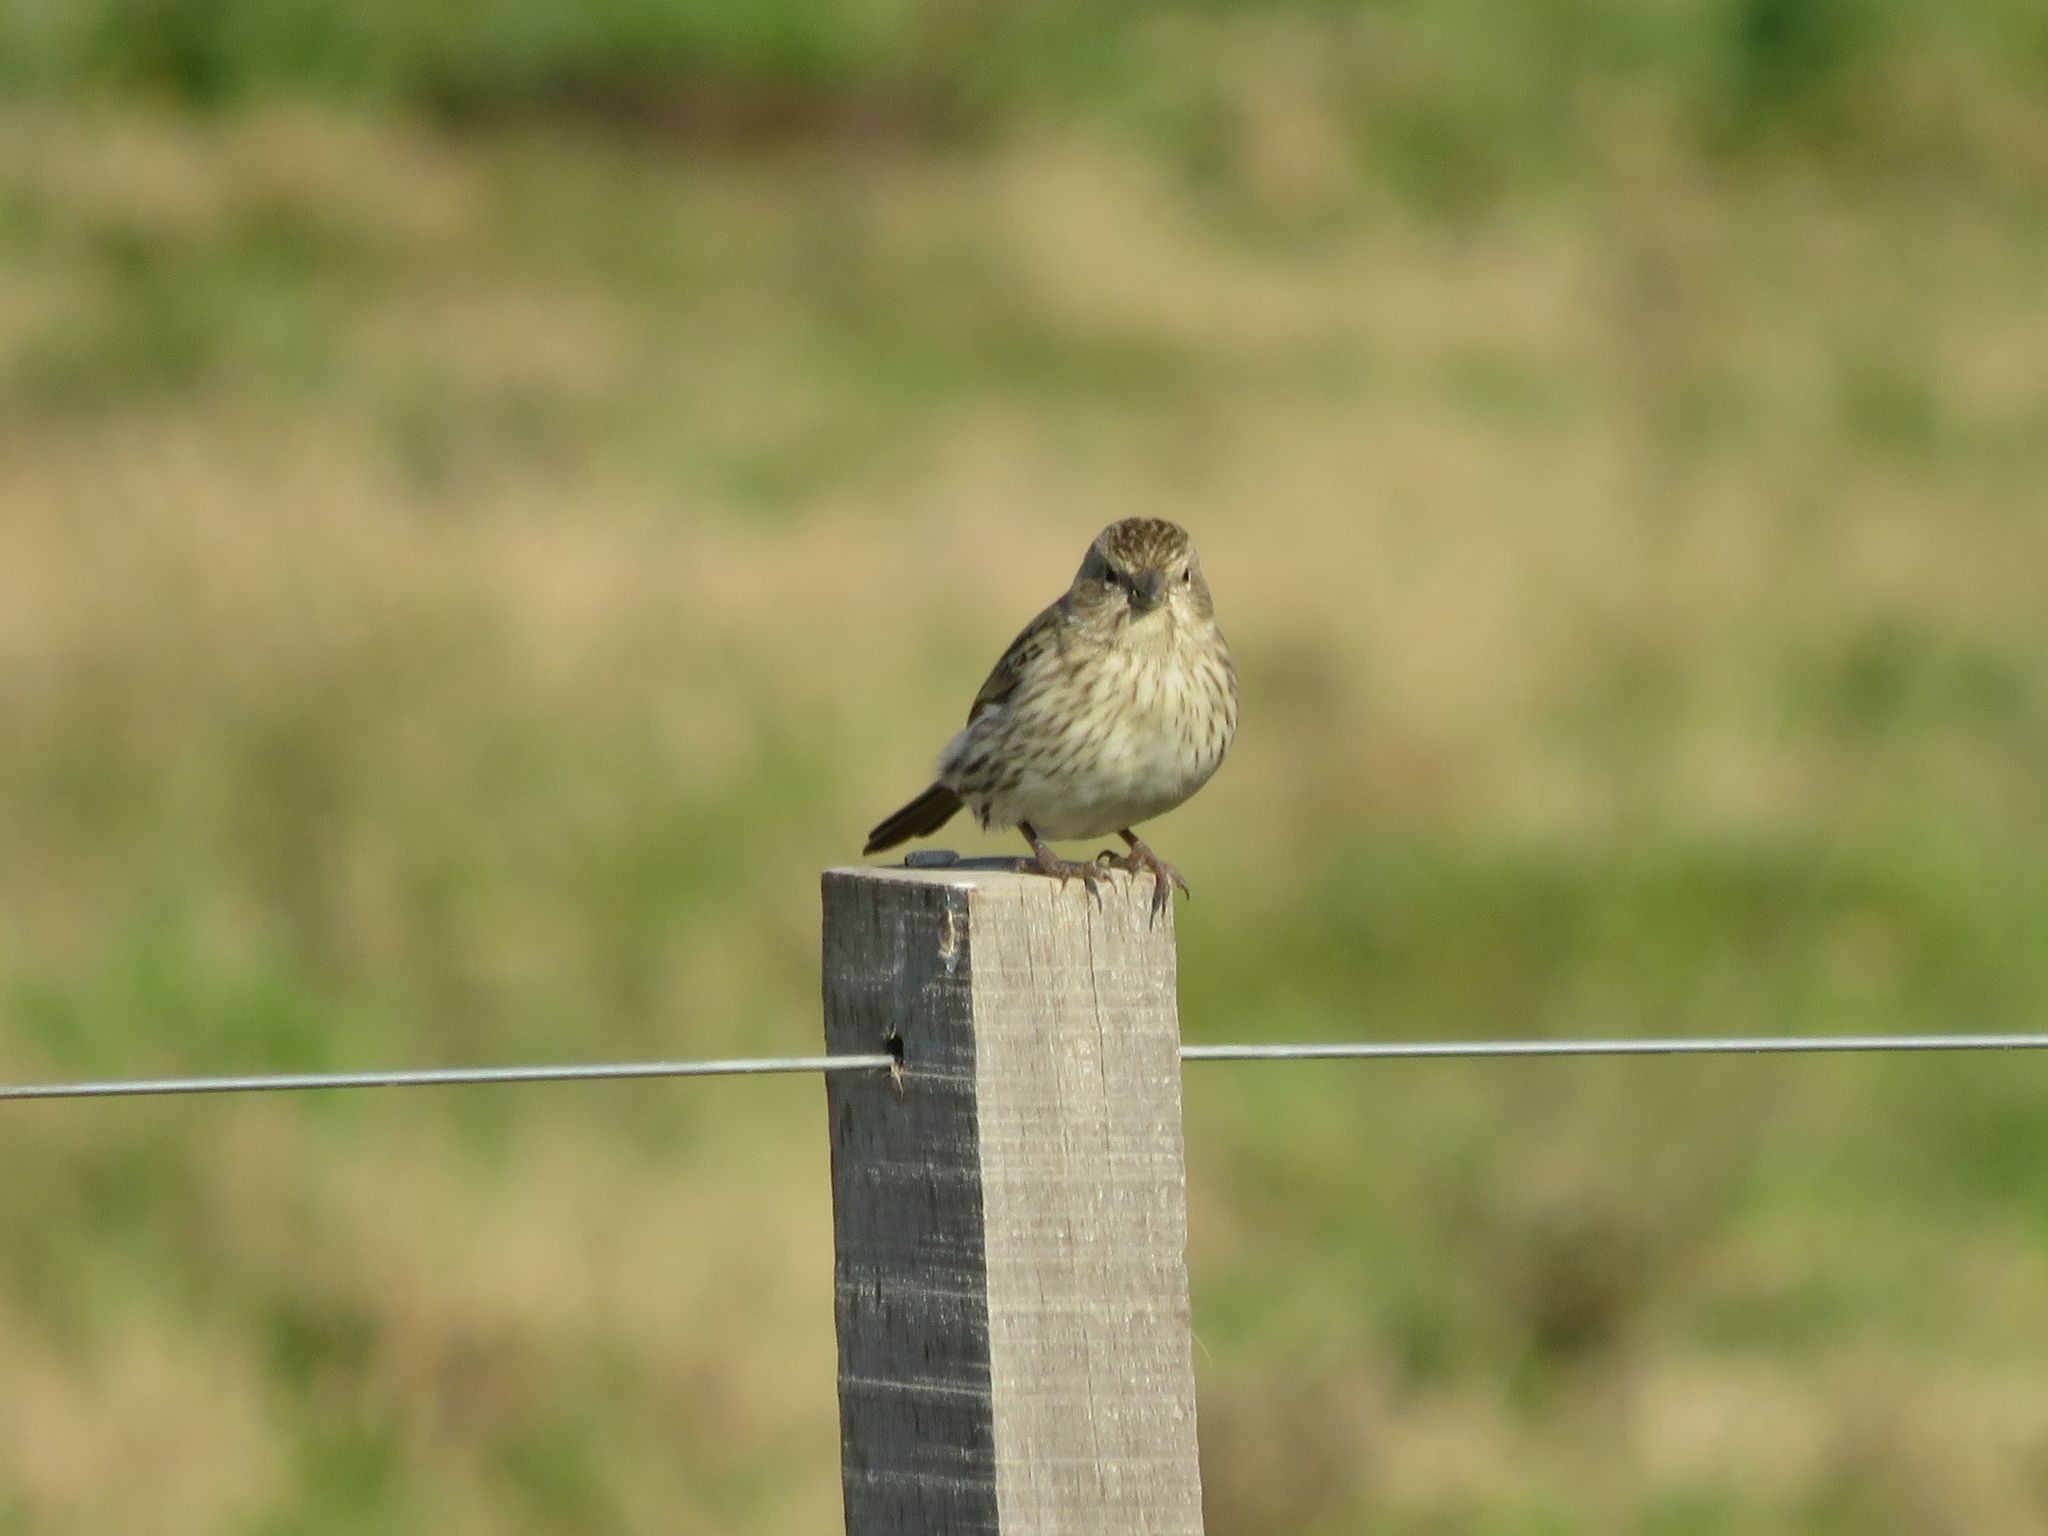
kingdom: Animalia
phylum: Chordata
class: Aves
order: Passeriformes
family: Thraupidae
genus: Sicalis
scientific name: Sicalis flaveola
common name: Saffron finch
